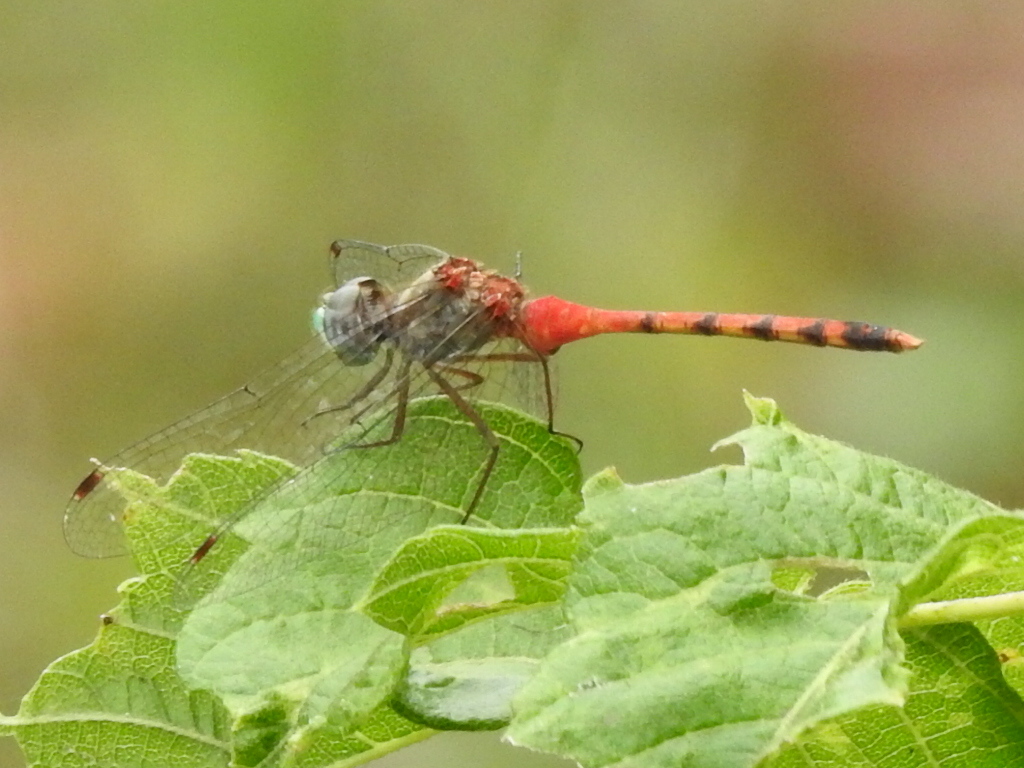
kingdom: Animalia
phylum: Arthropoda
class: Insecta
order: Odonata
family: Libellulidae
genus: Sympetrum
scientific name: Sympetrum ambiguum
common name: Blue-faced meadowhawk
